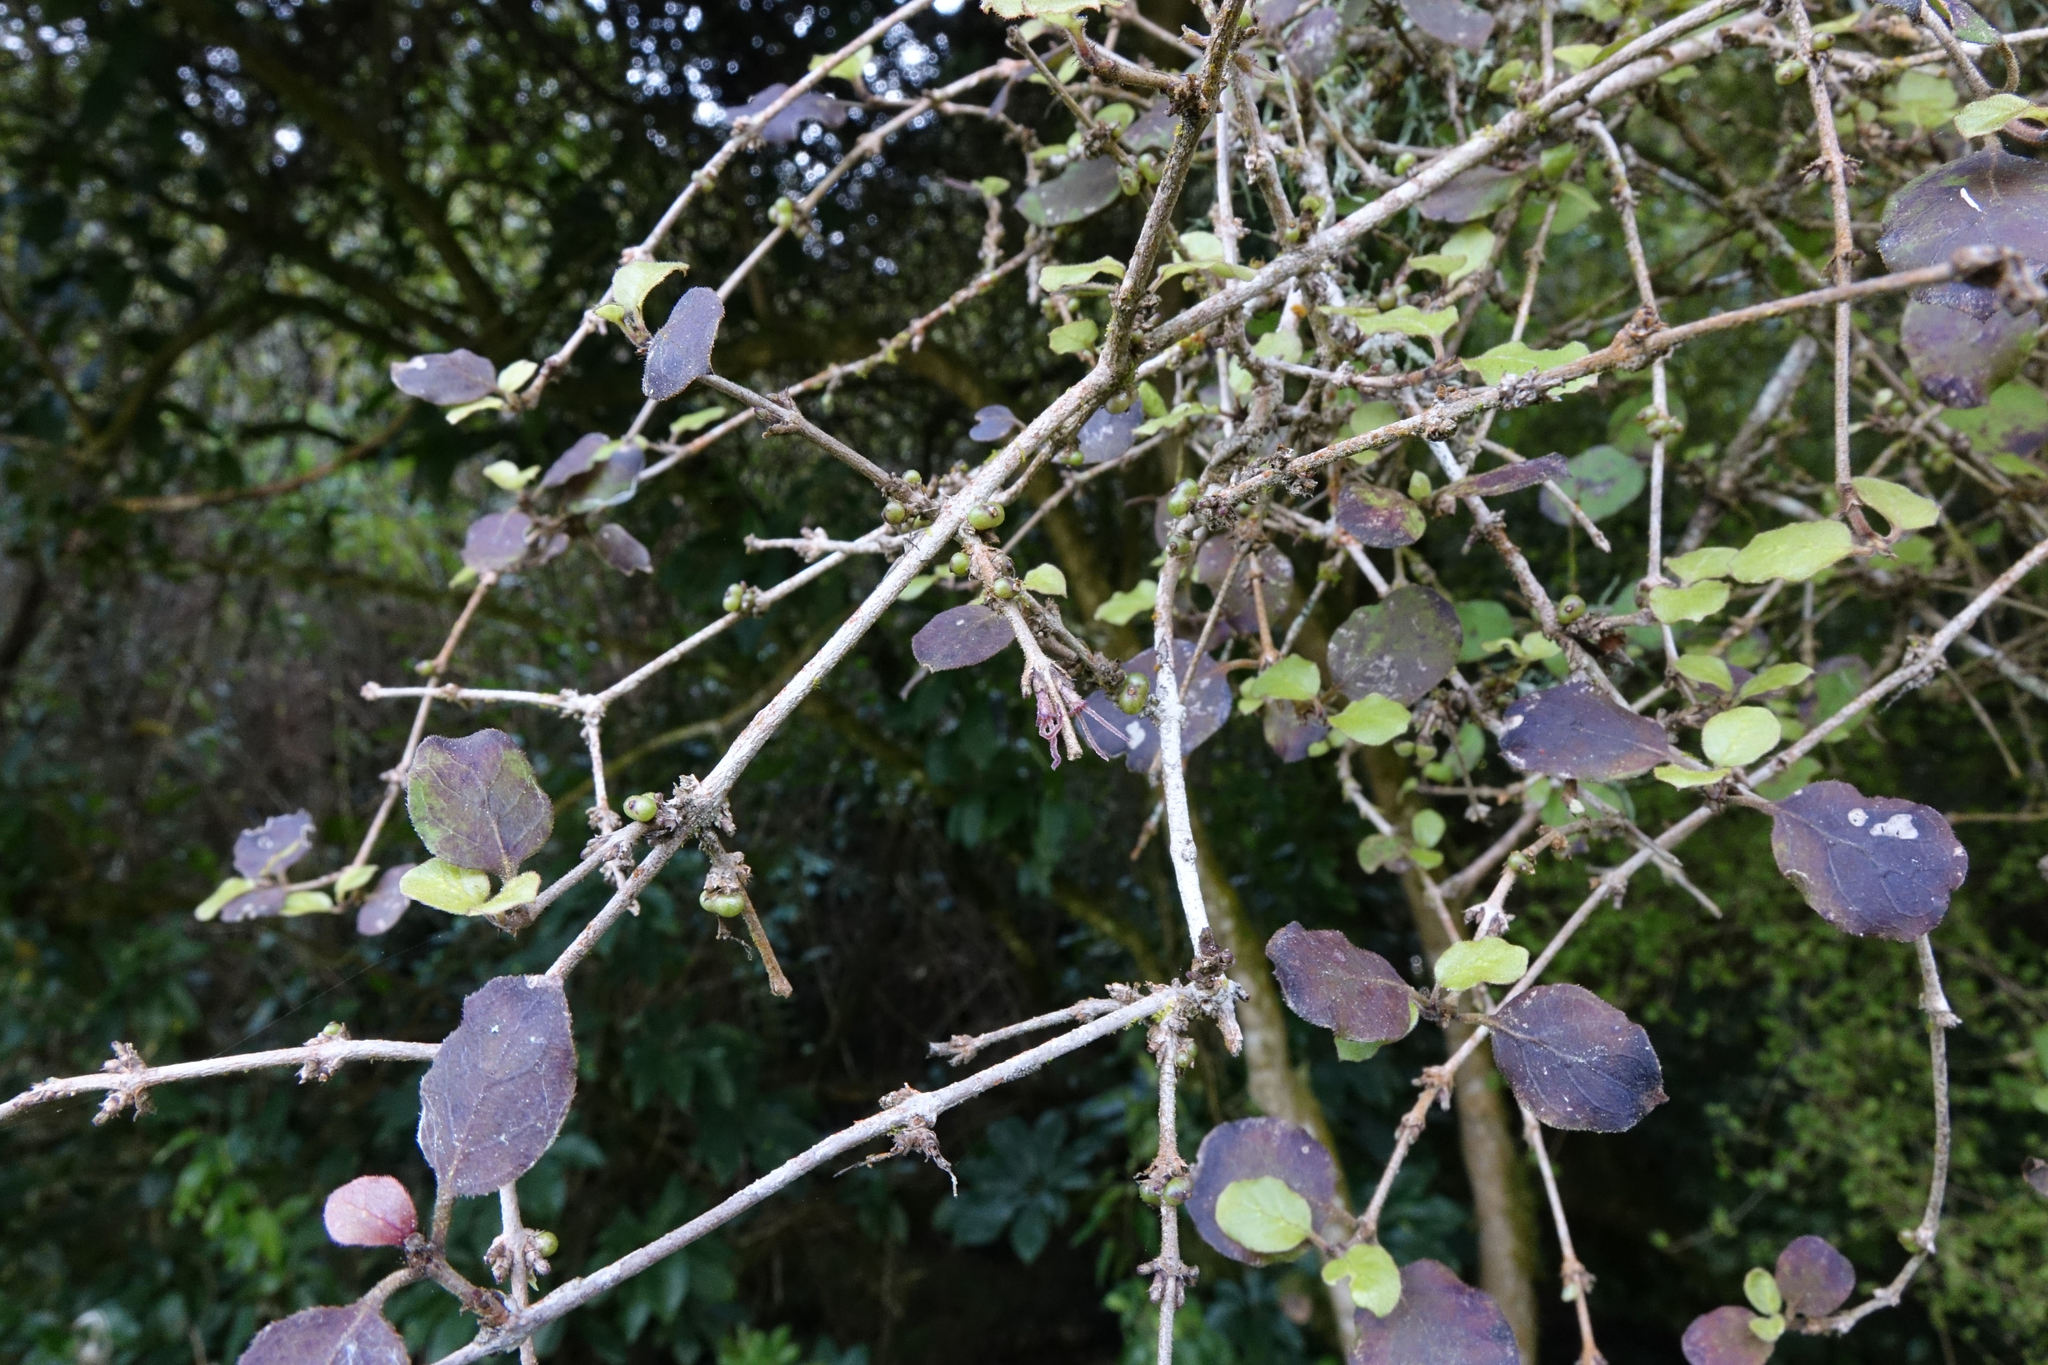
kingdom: Plantae
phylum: Tracheophyta
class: Magnoliopsida
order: Gentianales
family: Rubiaceae
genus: Coprosma
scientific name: Coprosma rotundifolia
